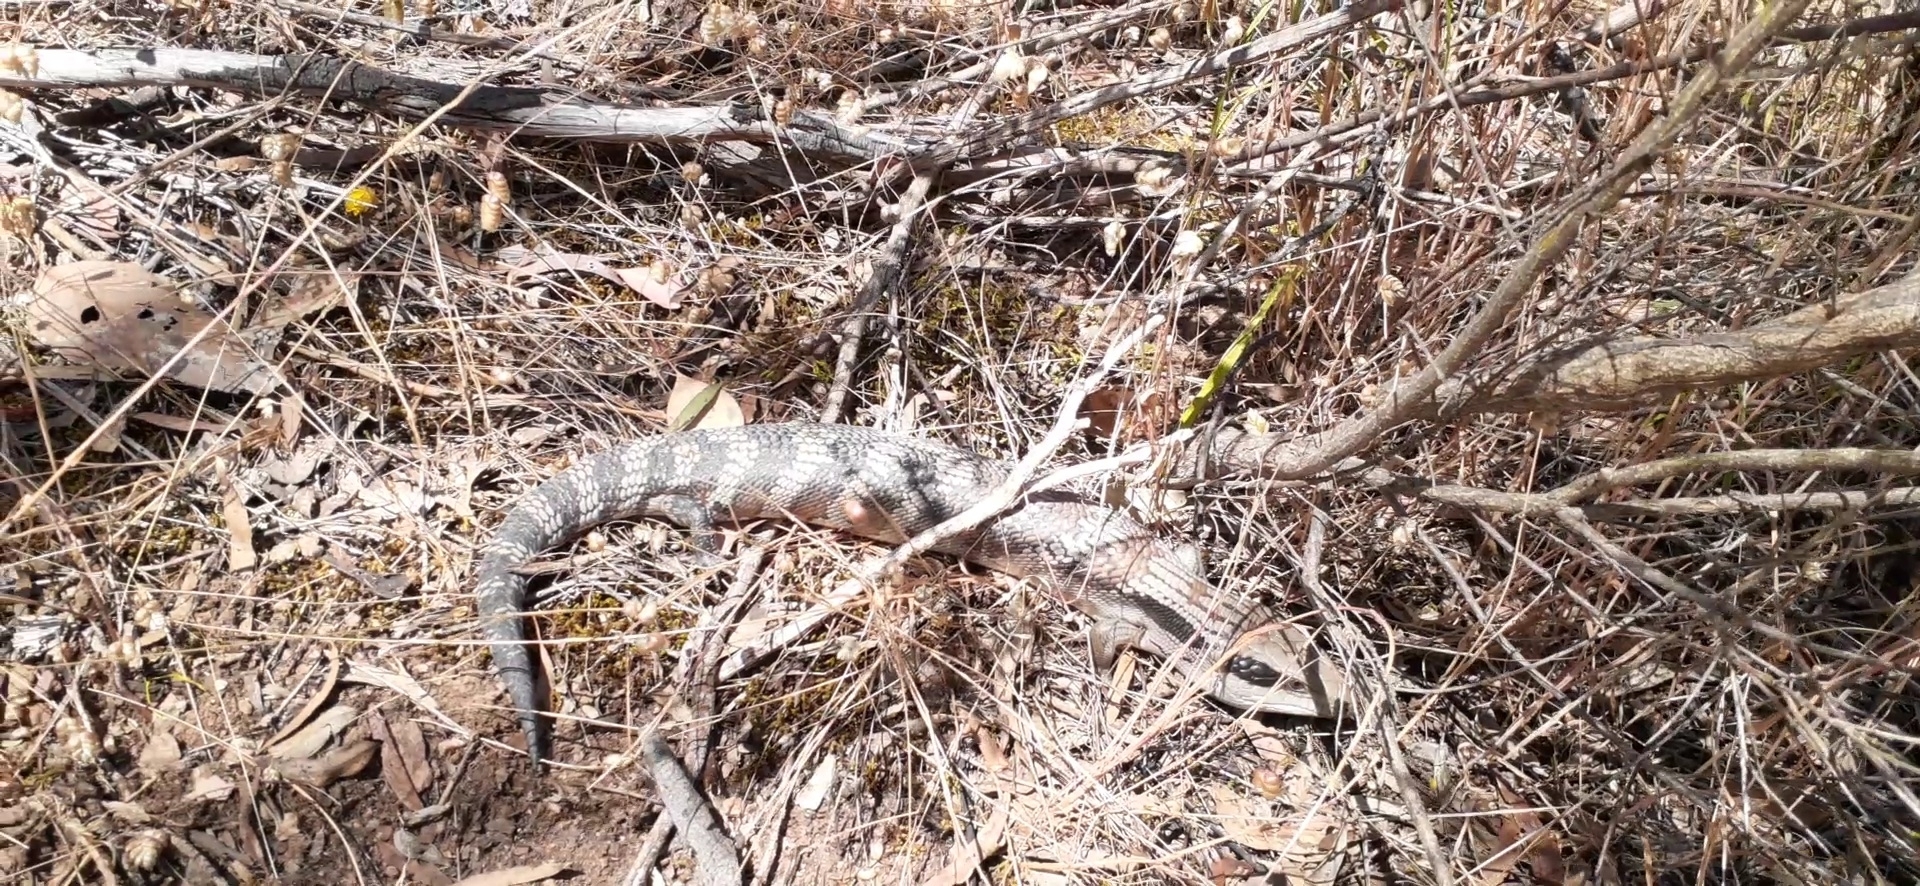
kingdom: Animalia
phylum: Chordata
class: Squamata
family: Scincidae
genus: Tiliqua
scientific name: Tiliqua scincoides
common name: Common bluetongue
